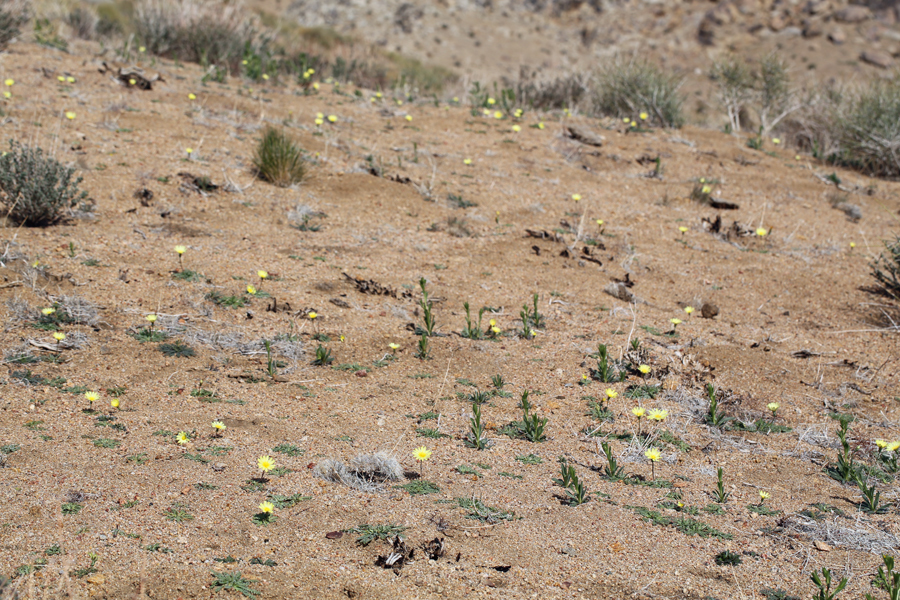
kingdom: Plantae
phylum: Tracheophyta
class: Magnoliopsida
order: Asterales
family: Asteraceae
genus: Anisocoma
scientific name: Anisocoma acaulis
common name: Scalebud
